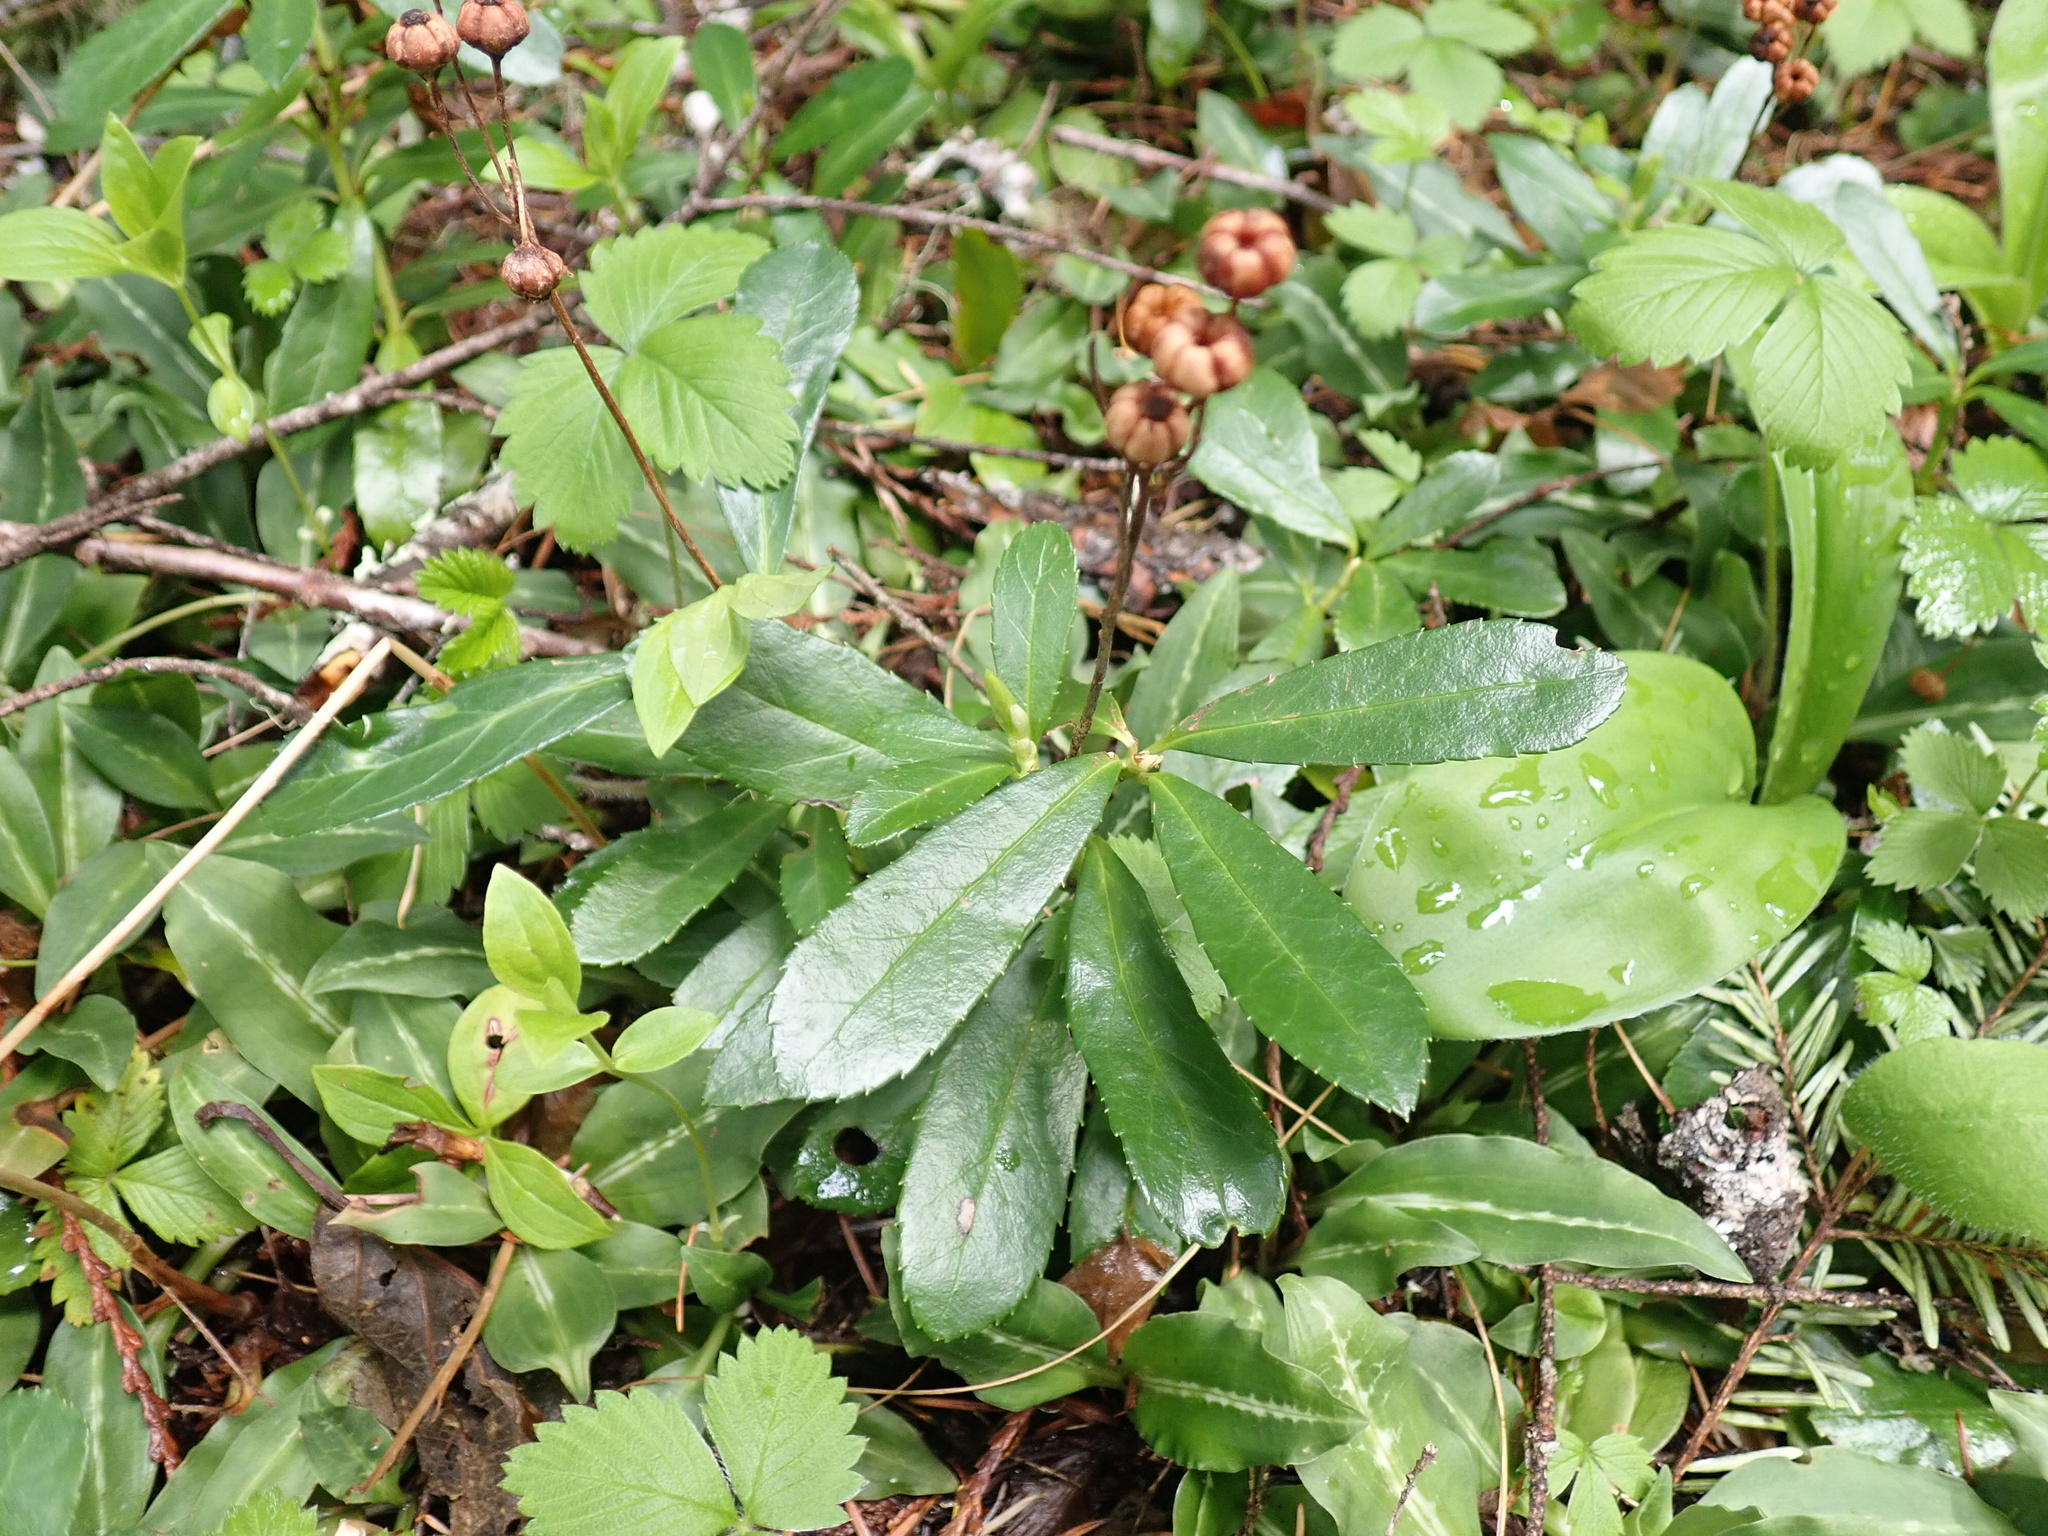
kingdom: Plantae
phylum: Tracheophyta
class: Magnoliopsida
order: Ericales
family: Ericaceae
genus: Chimaphila
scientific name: Chimaphila umbellata
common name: Pipsissewa
